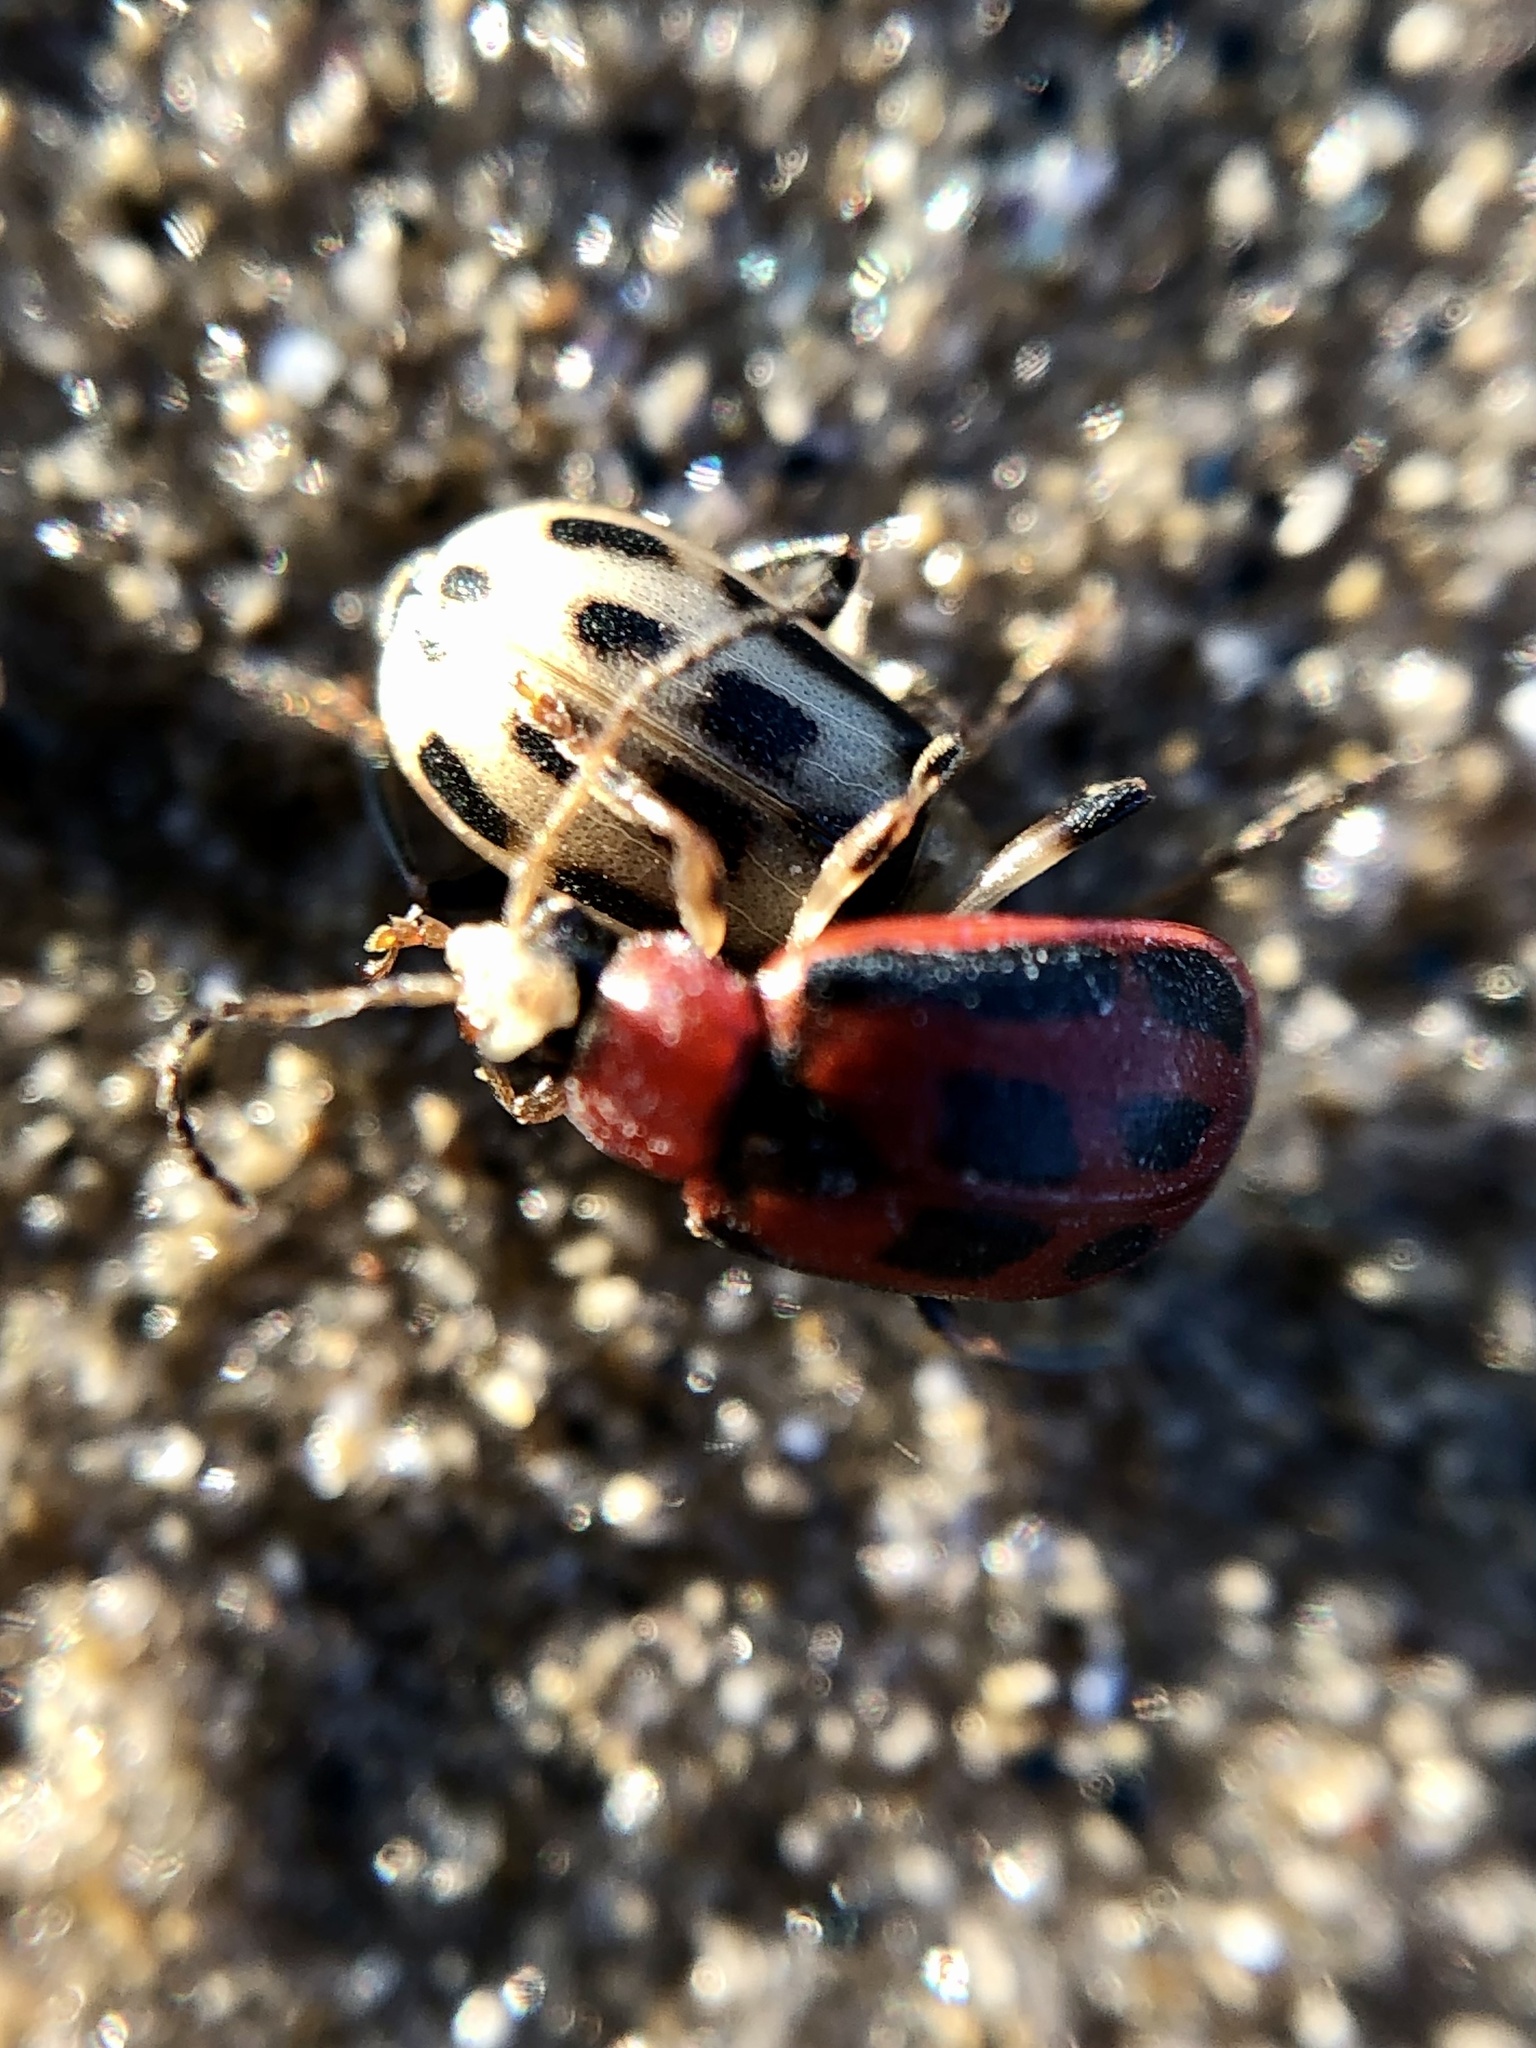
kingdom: Animalia
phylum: Arthropoda
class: Insecta
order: Coleoptera
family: Chrysomelidae
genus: Cerotoma
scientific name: Cerotoma trifurcata
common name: Bean leaf beetle
